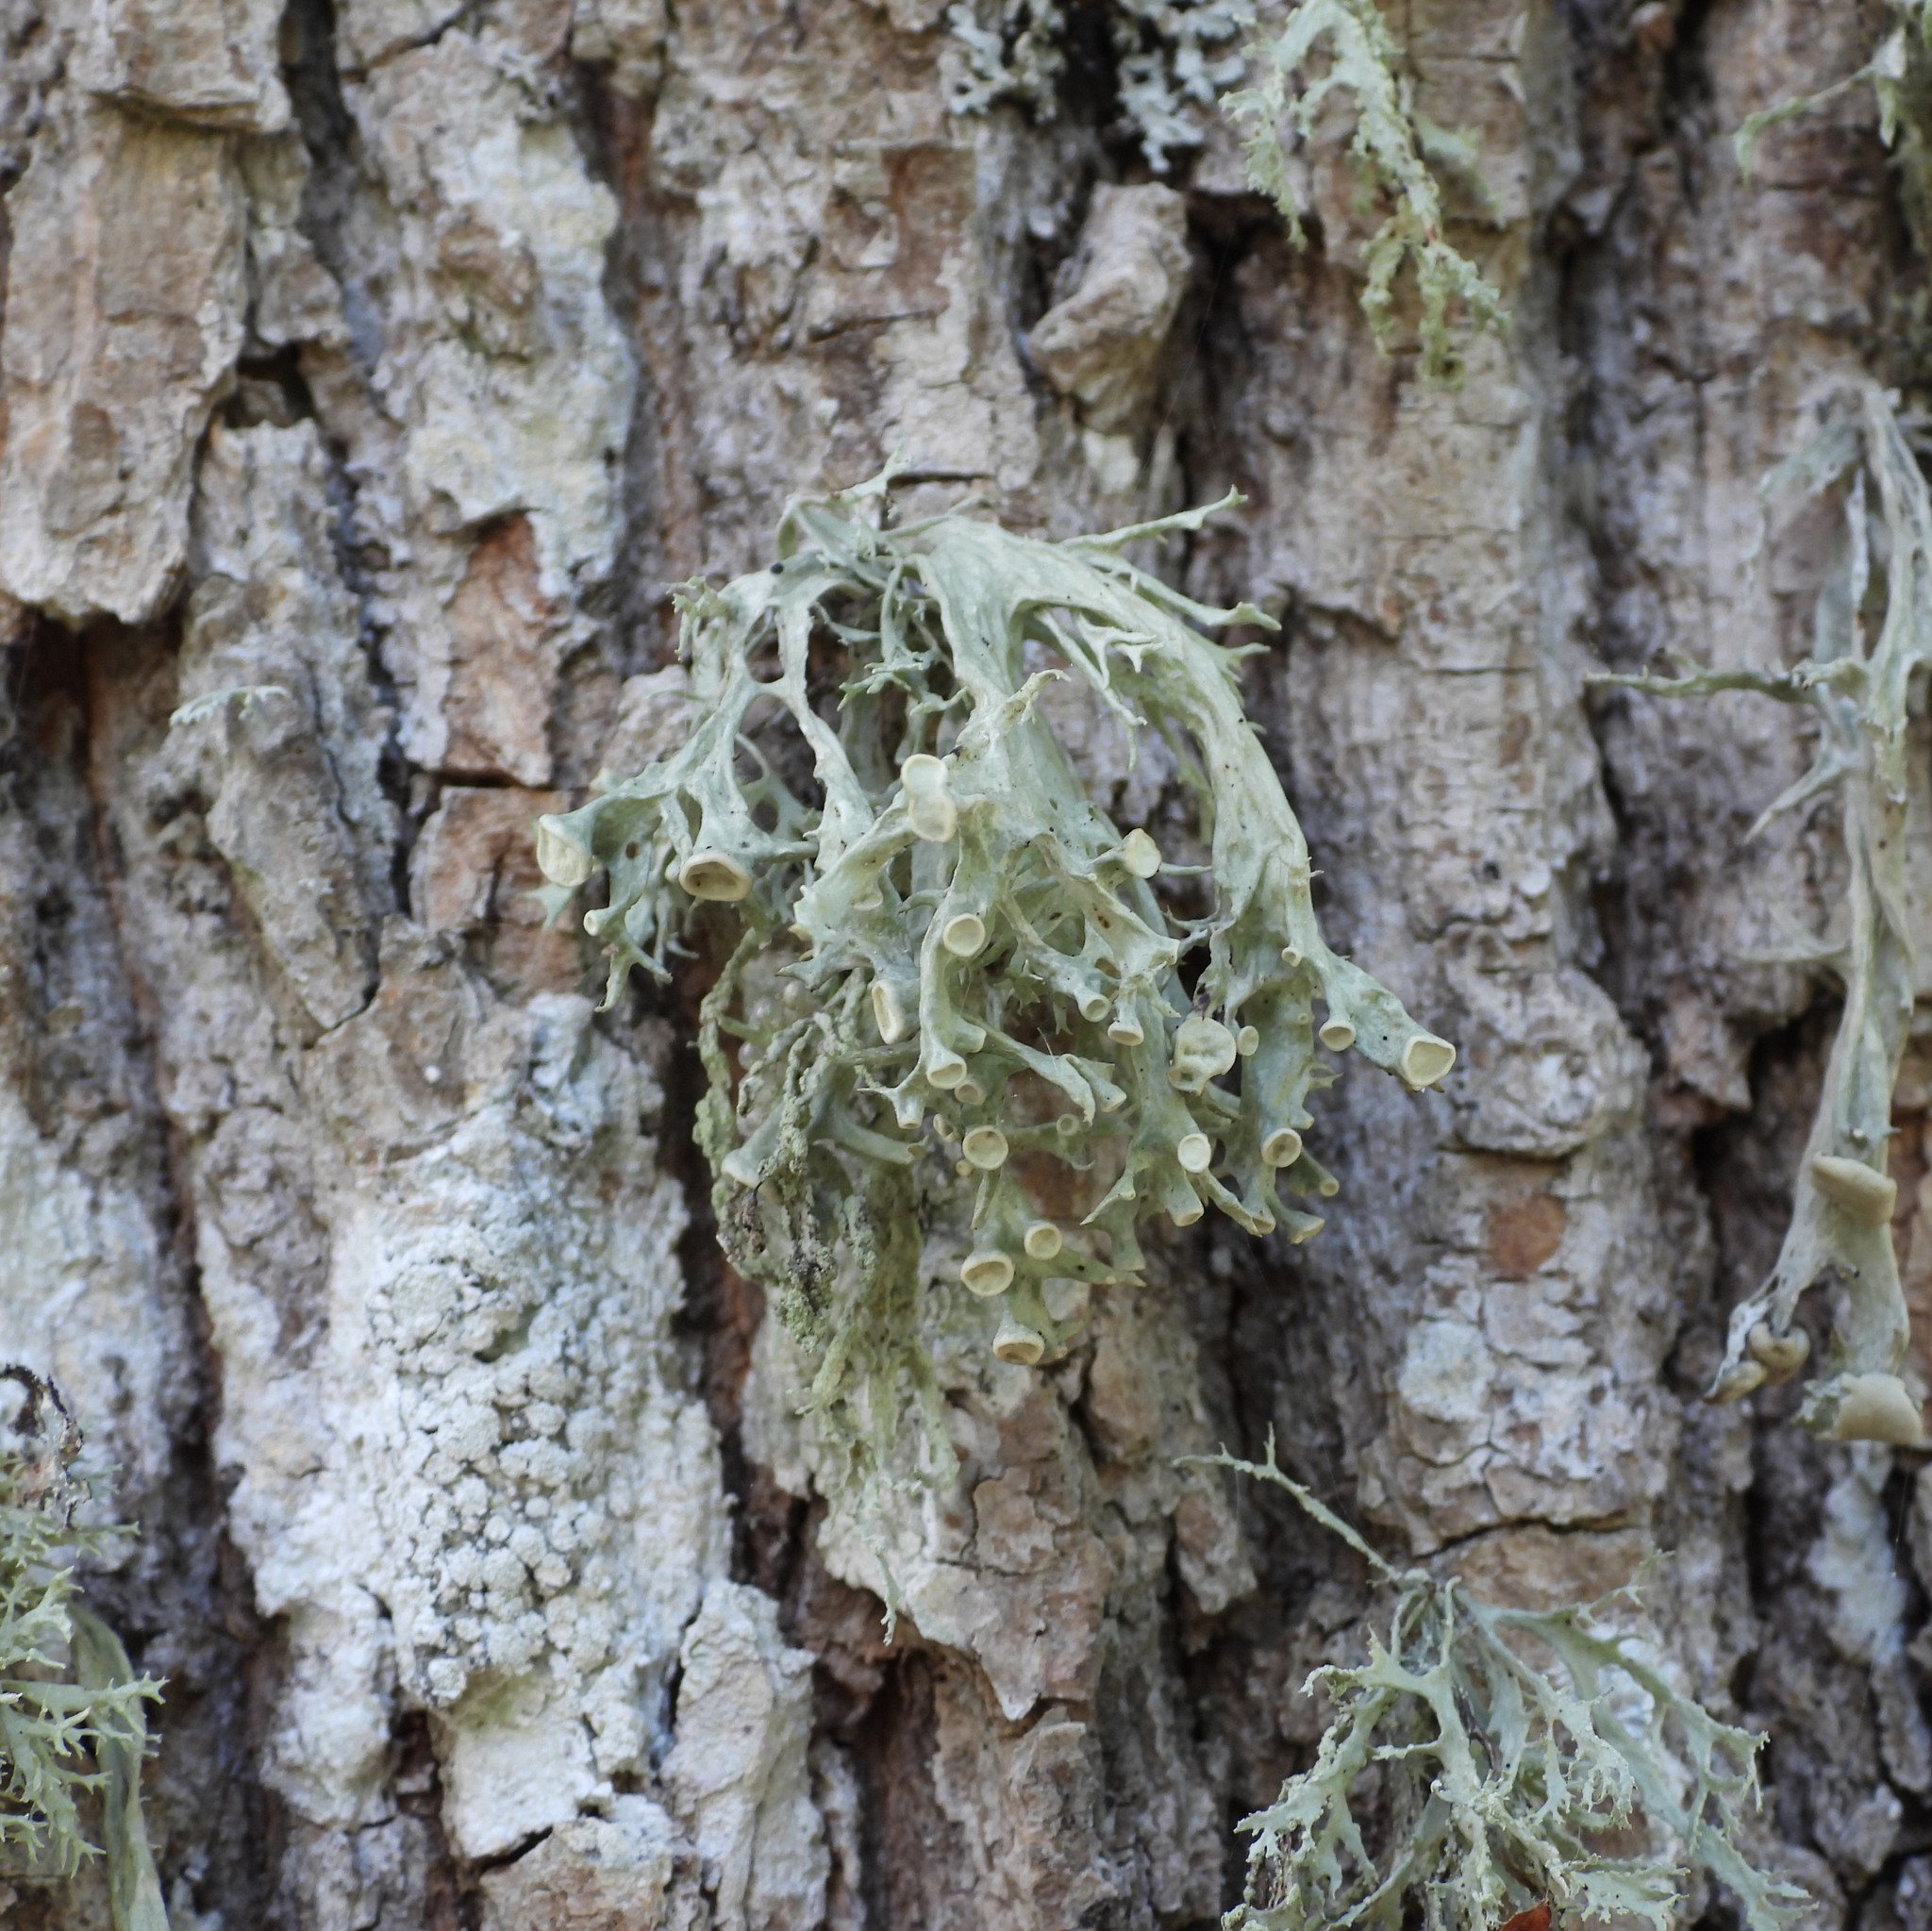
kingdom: Fungi
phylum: Ascomycota
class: Lecanoromycetes
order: Lecanorales
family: Ramalinaceae
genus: Ramalina
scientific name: Ramalina fastigiata
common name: Dotted ribbon lichen
